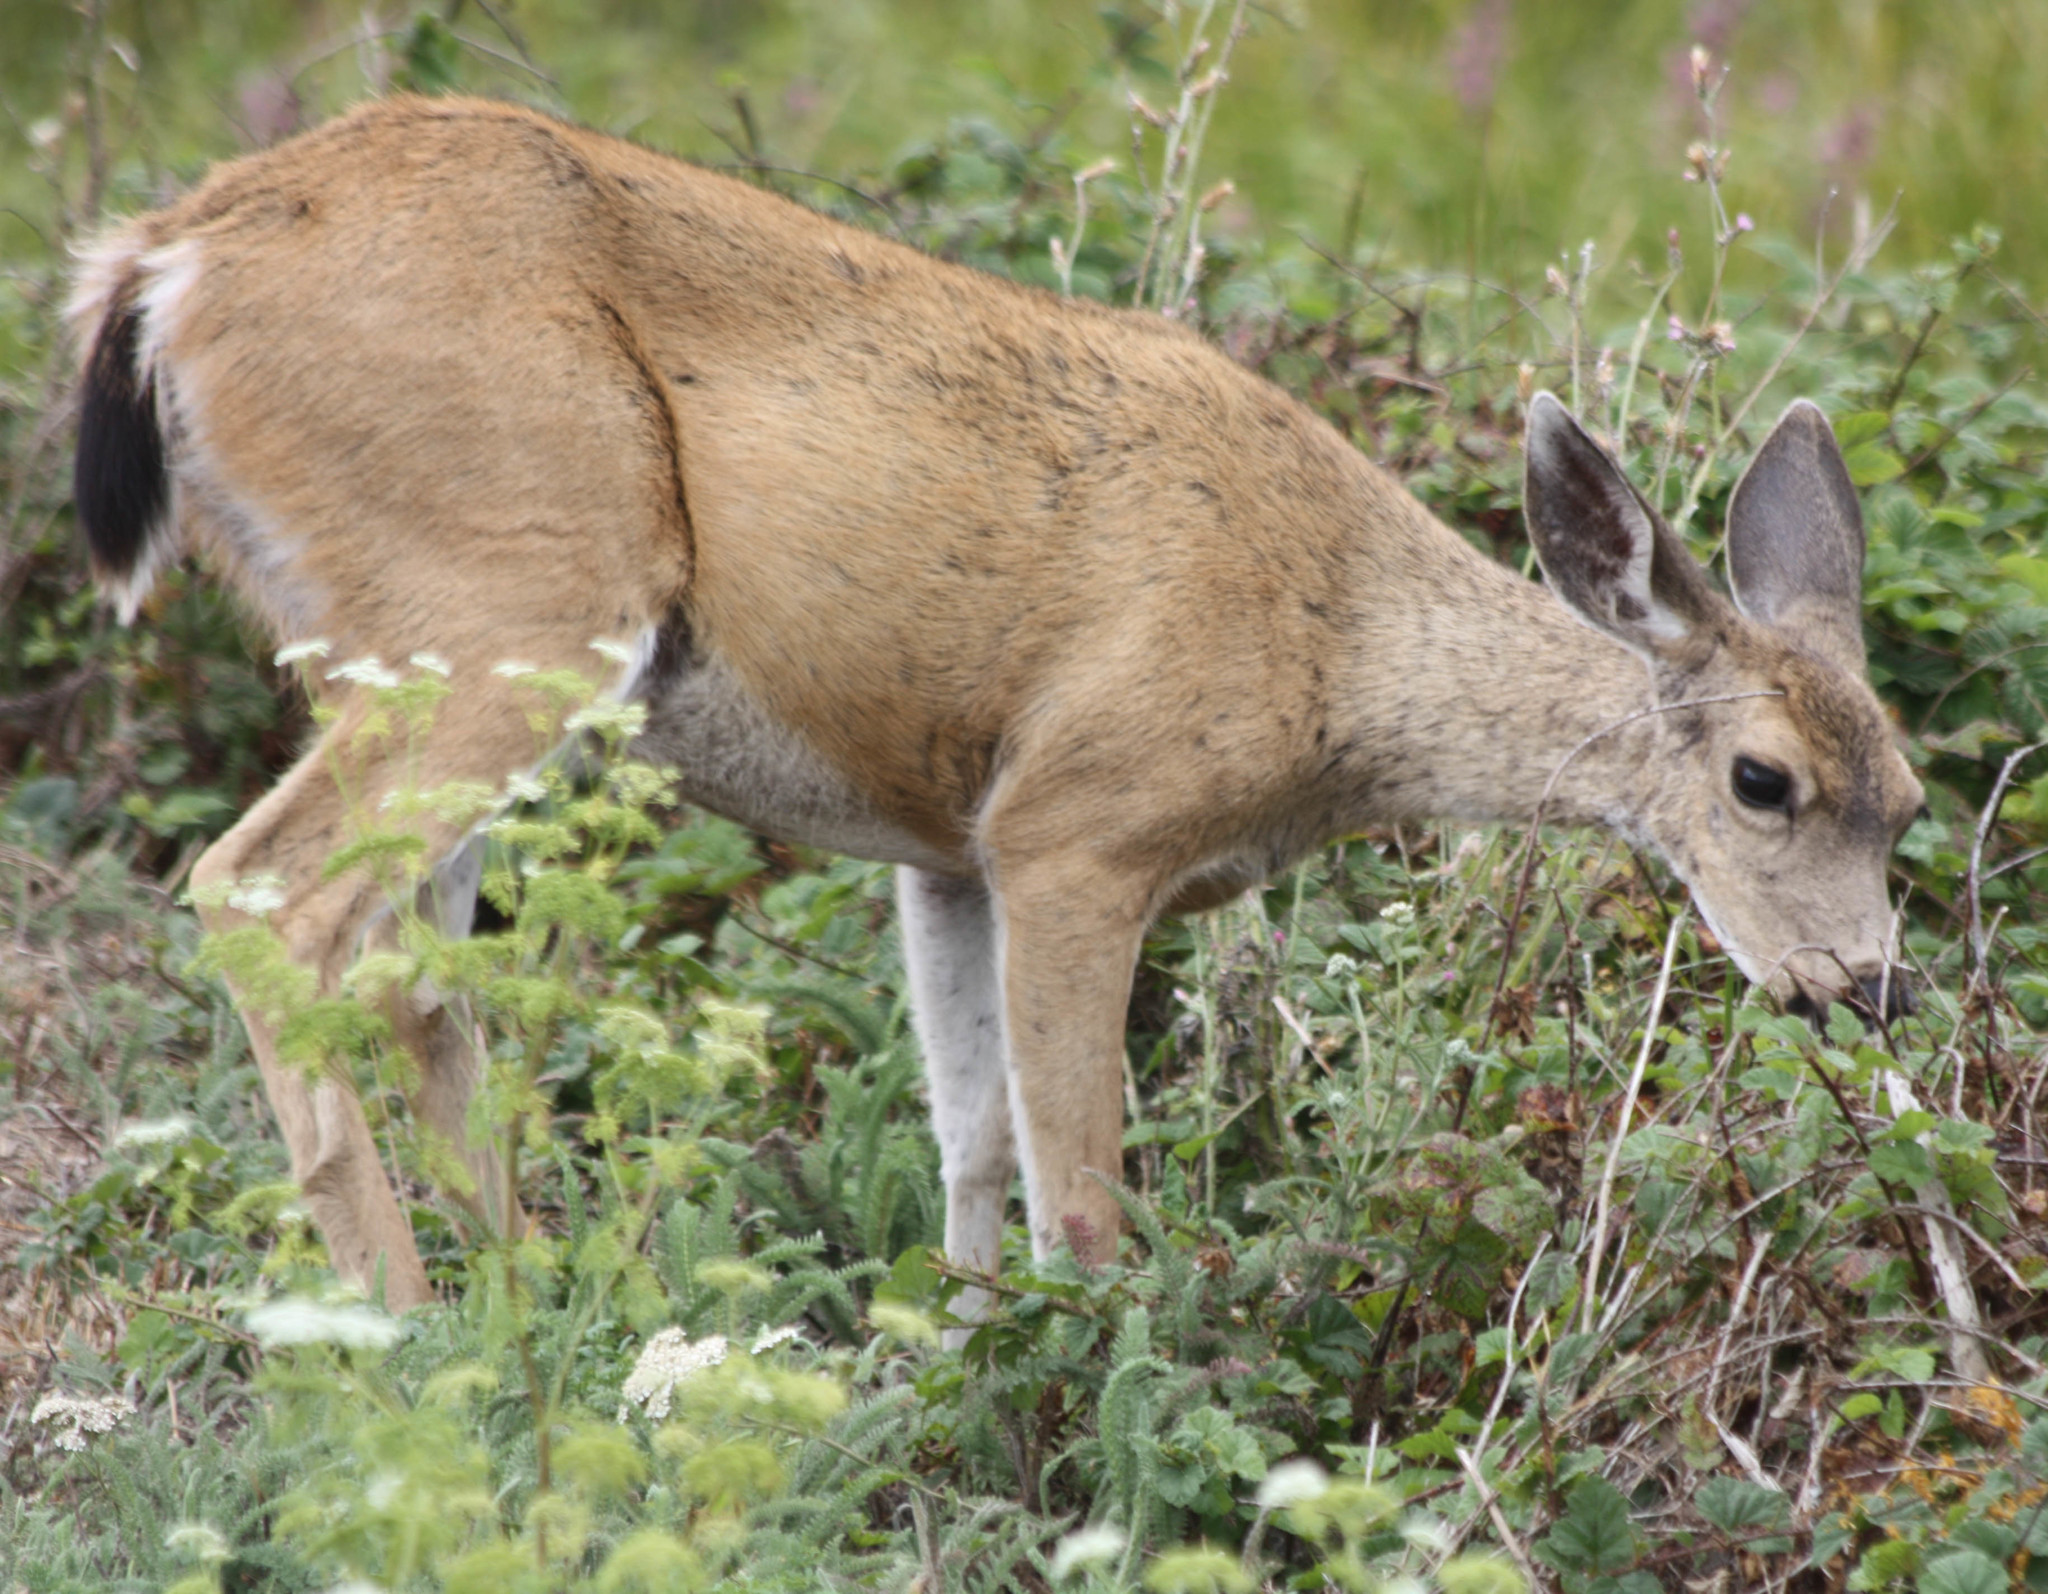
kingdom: Animalia
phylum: Chordata
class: Mammalia
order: Artiodactyla
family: Cervidae
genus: Odocoileus
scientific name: Odocoileus hemionus
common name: Mule deer
